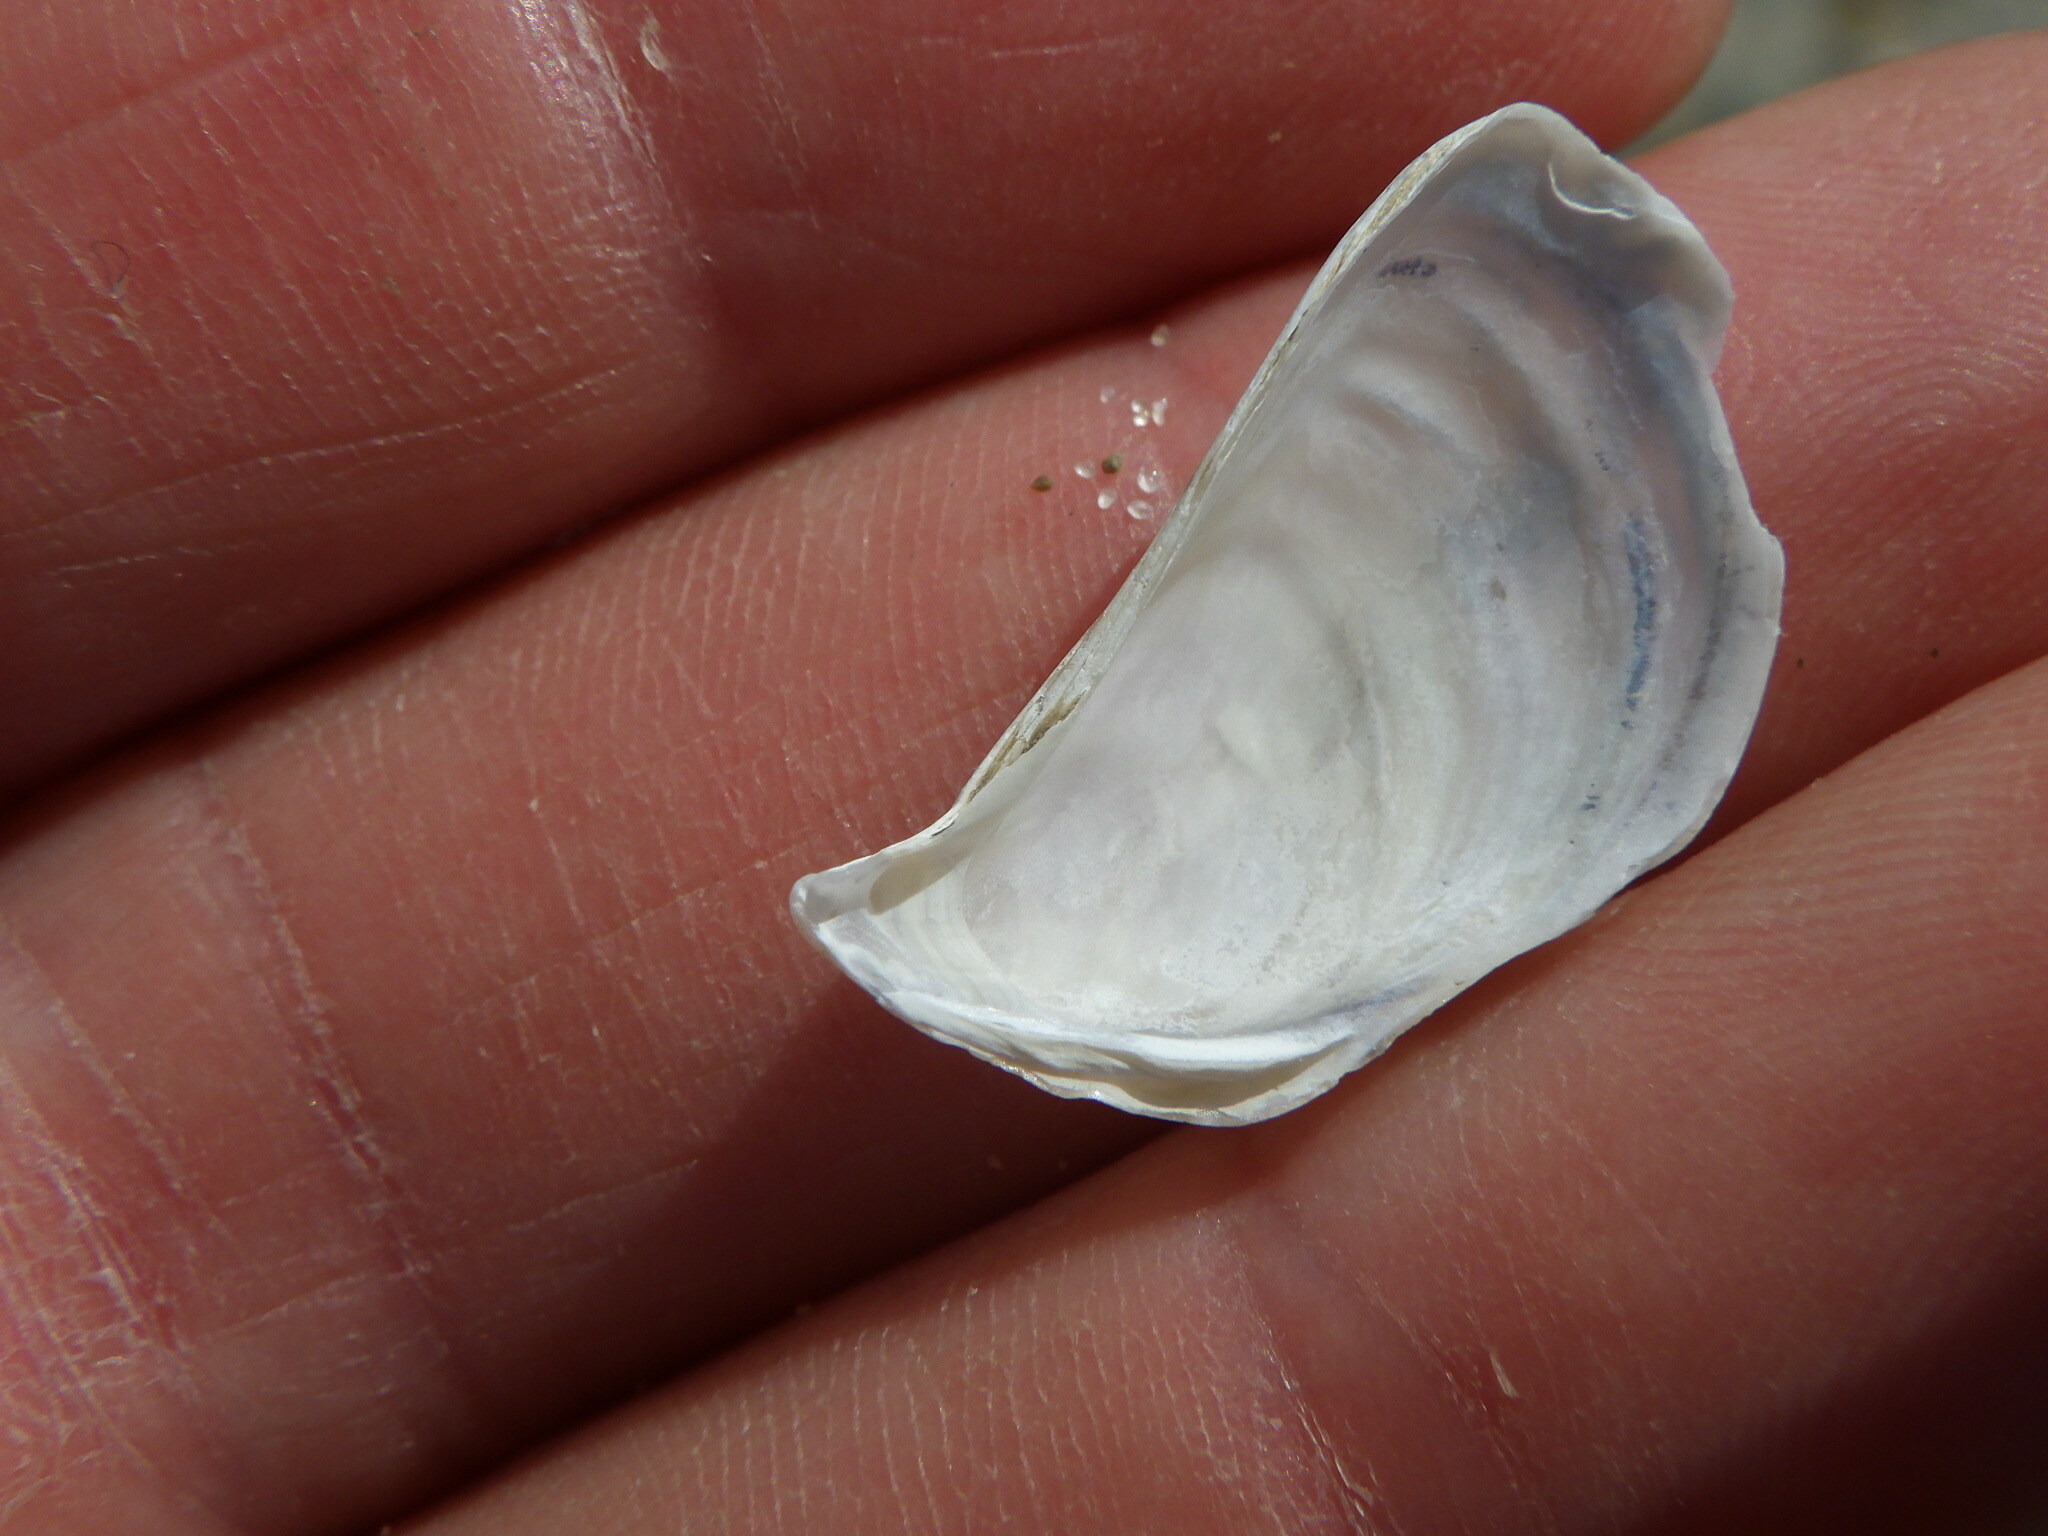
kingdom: Animalia
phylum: Mollusca
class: Bivalvia
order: Myida
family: Dreissenidae
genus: Dreissena
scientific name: Dreissena polymorpha
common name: Zebra mussel
